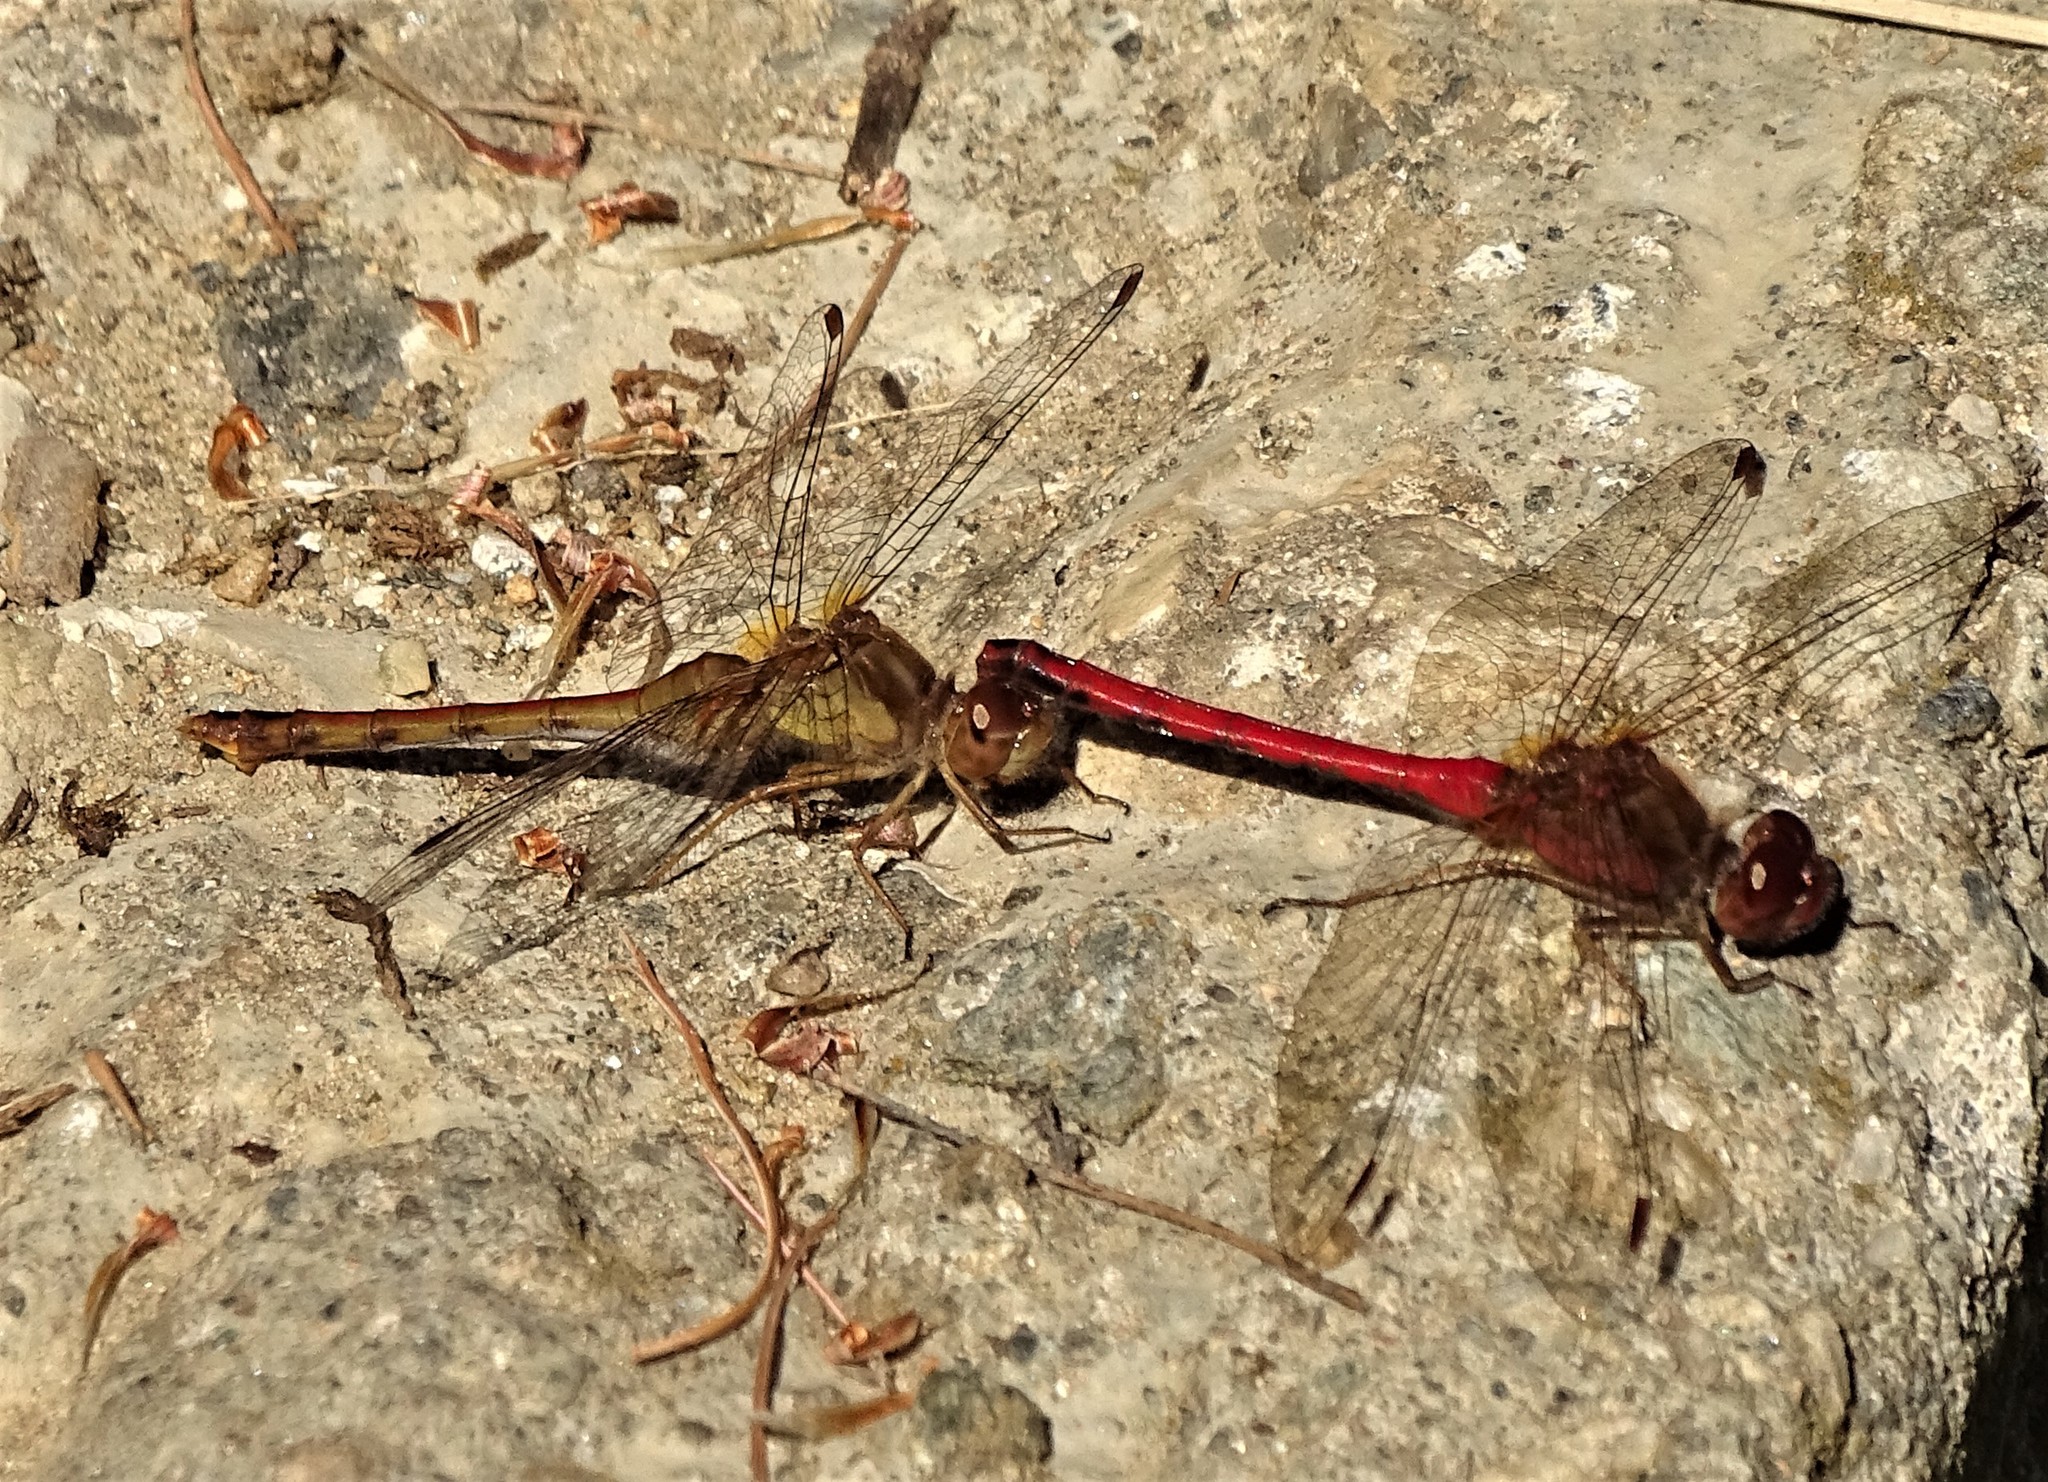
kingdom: Animalia
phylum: Arthropoda
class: Insecta
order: Odonata
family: Libellulidae
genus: Sympetrum
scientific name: Sympetrum vicinum
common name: Autumn meadowhawk
